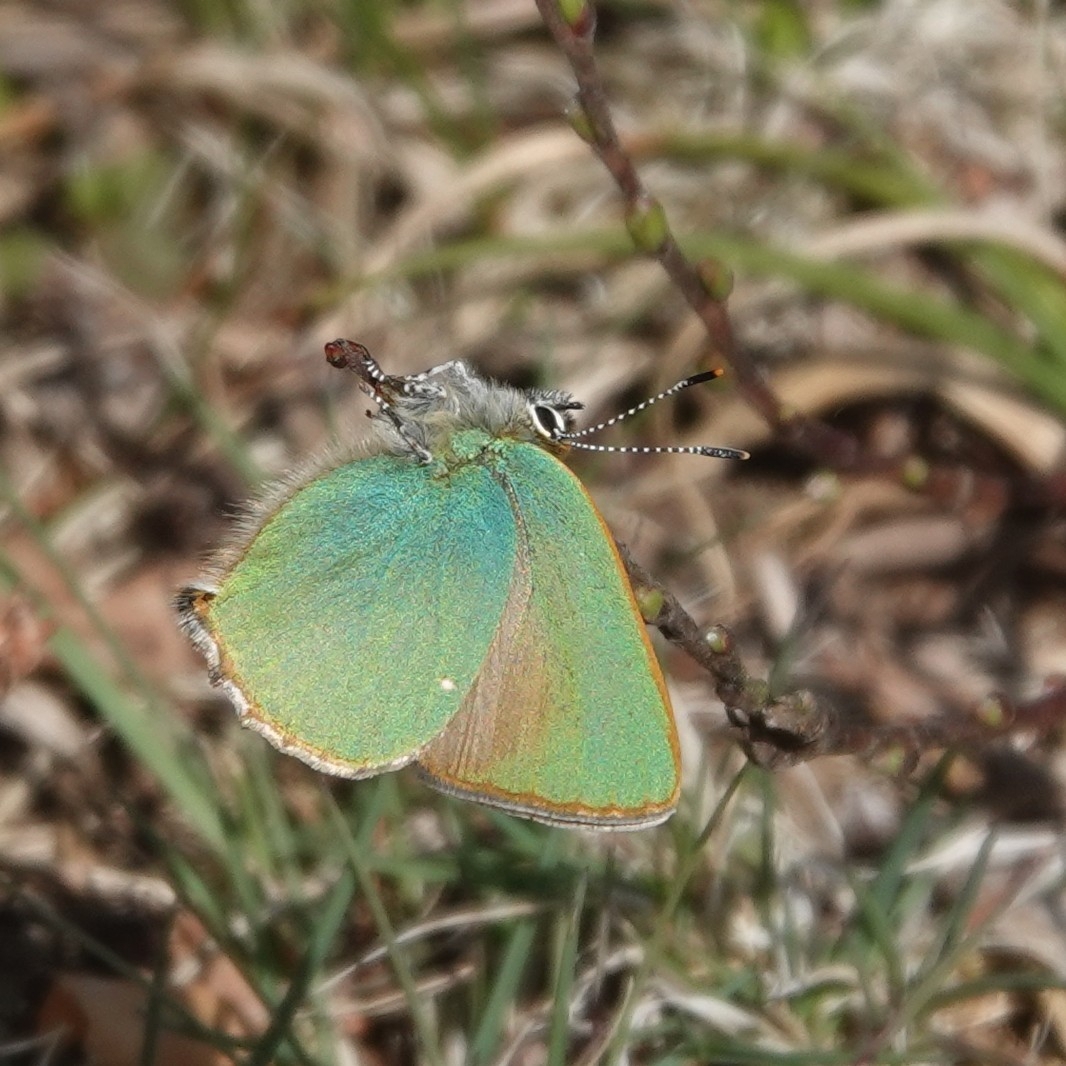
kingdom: Animalia
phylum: Arthropoda
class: Insecta
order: Lepidoptera
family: Lycaenidae
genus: Callophrys
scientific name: Callophrys rubi
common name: Green hairstreak
